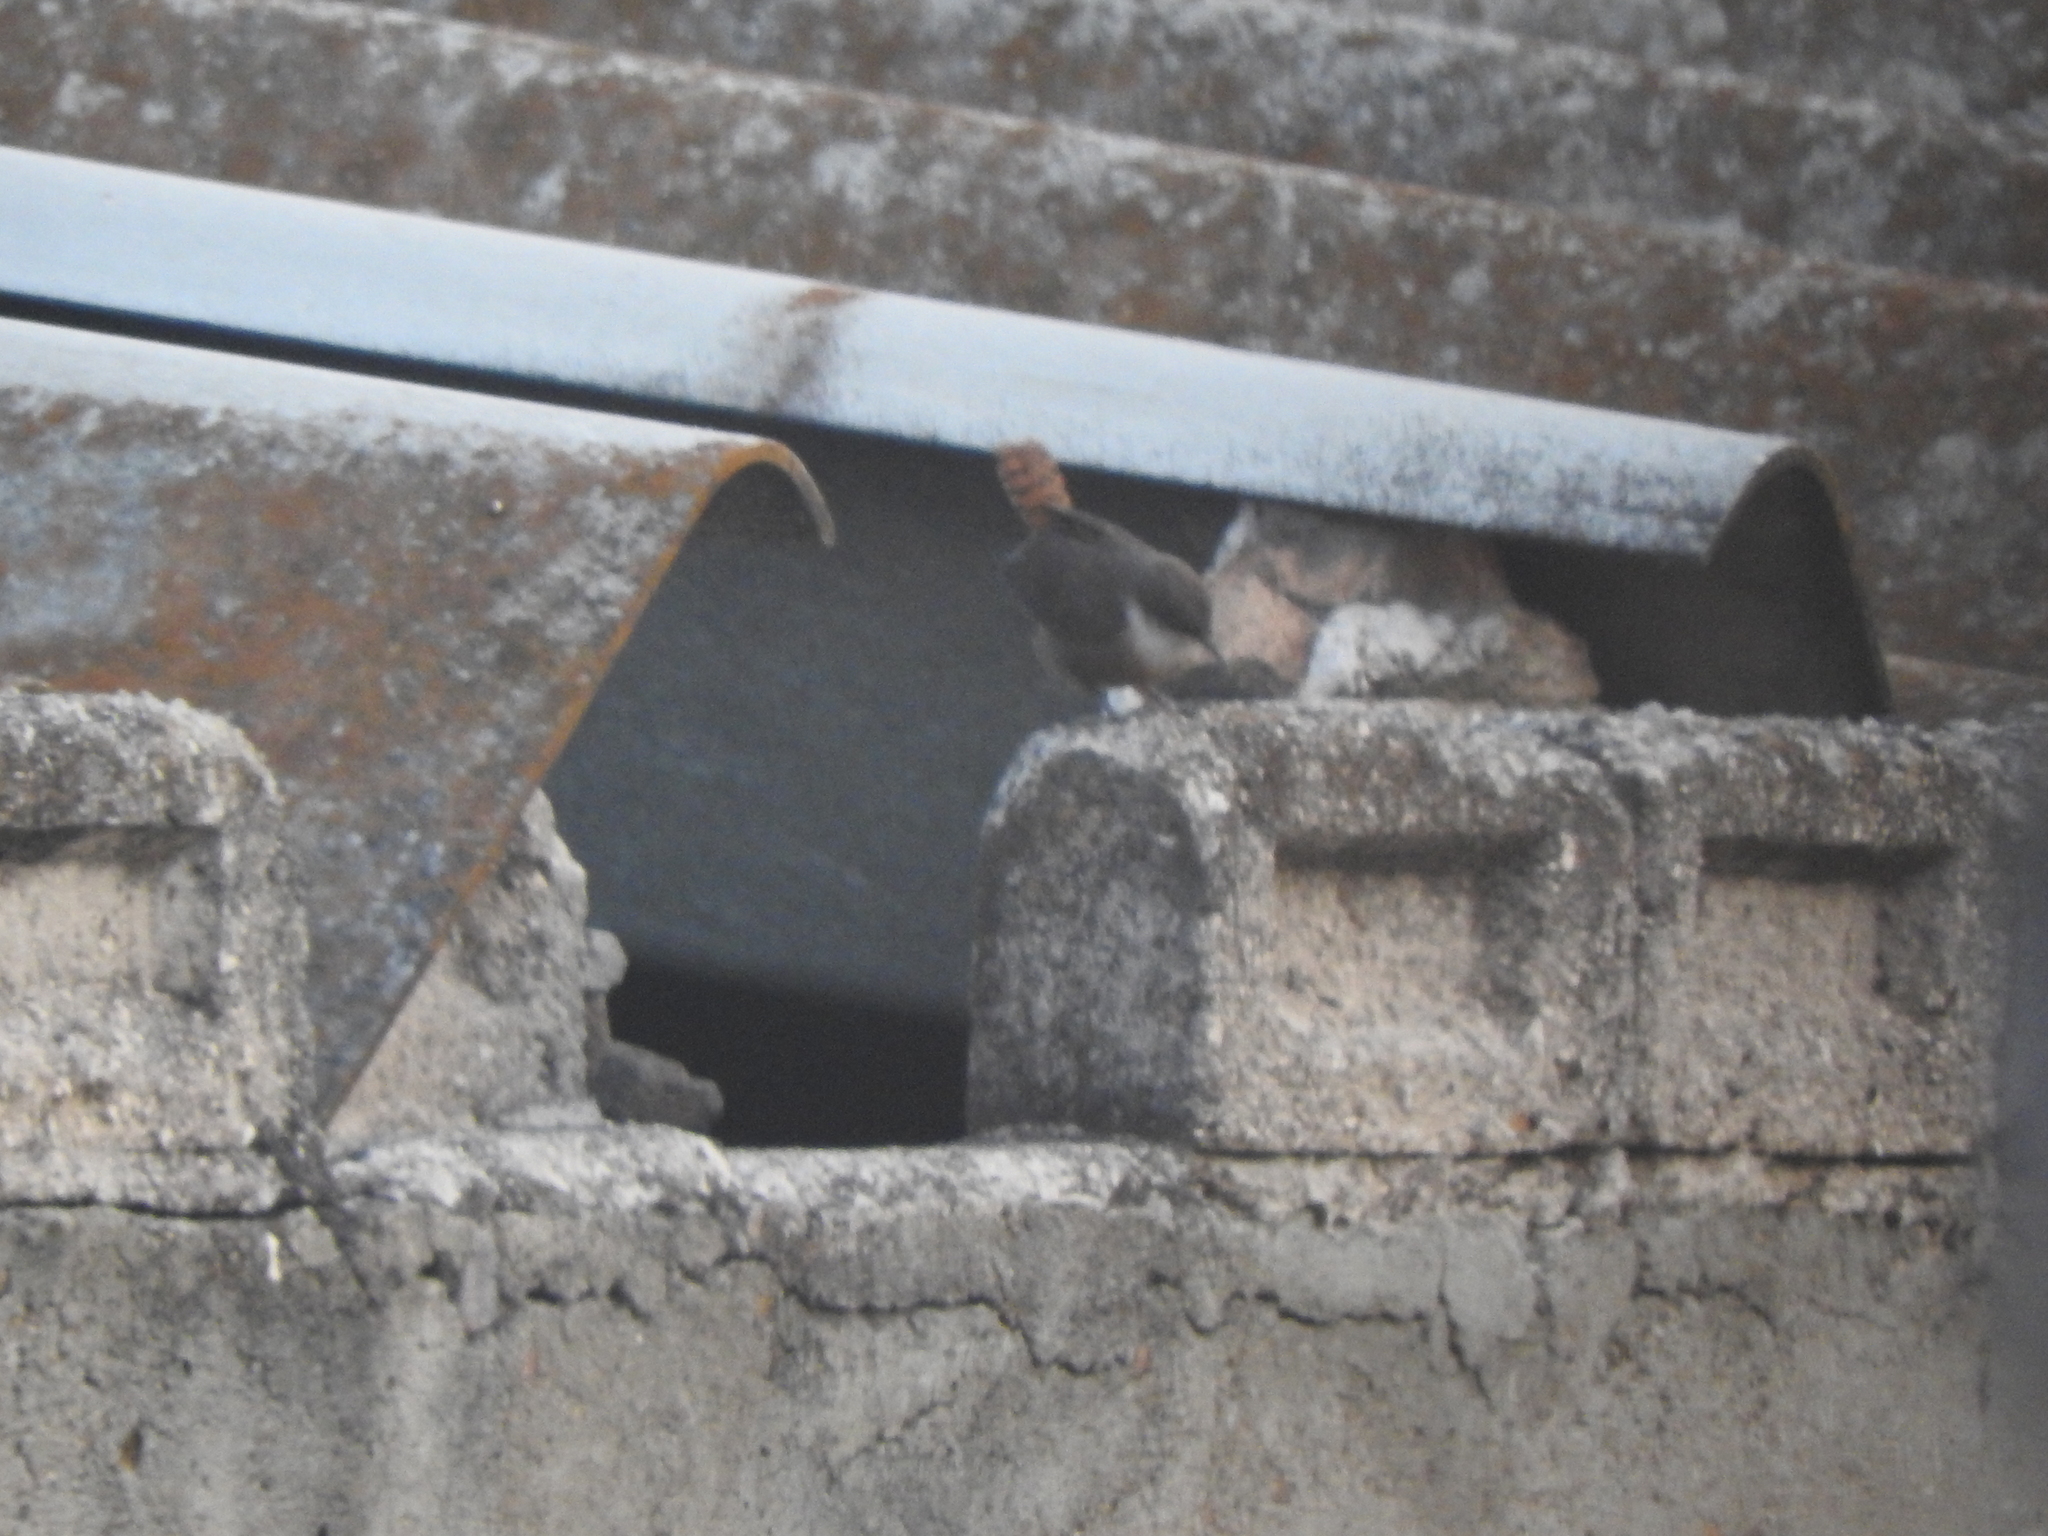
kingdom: Animalia
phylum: Chordata
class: Aves
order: Passeriformes
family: Troglodytidae
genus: Catherpes
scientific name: Catherpes mexicanus
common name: Canyon wren
